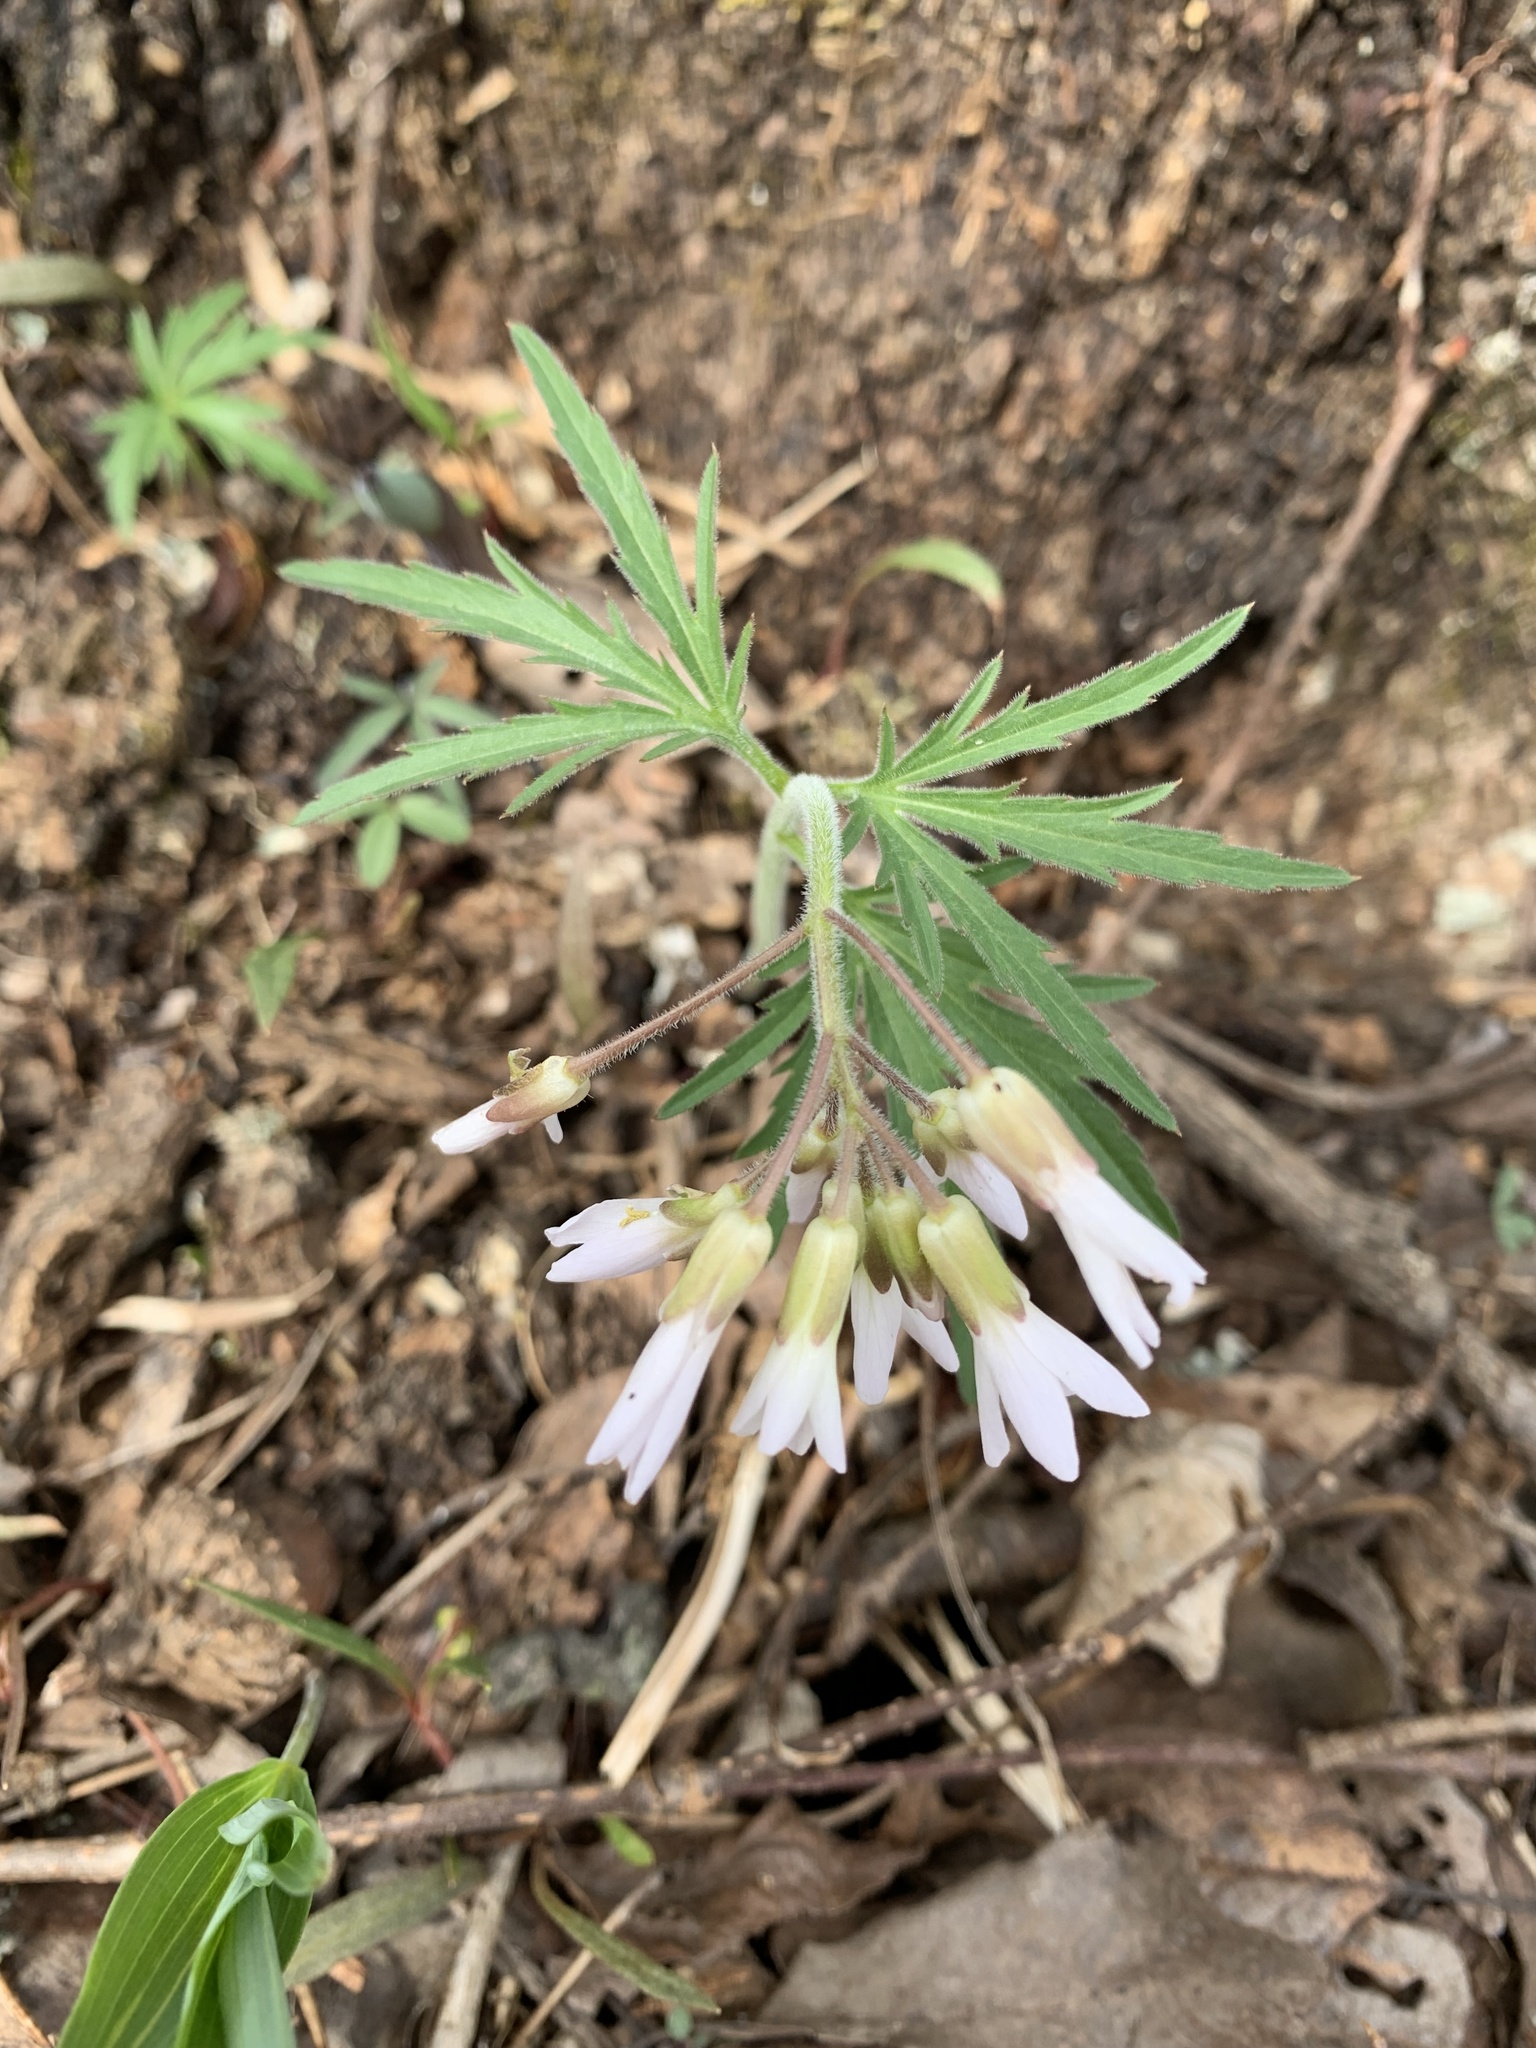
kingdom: Plantae
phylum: Tracheophyta
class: Magnoliopsida
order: Brassicales
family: Brassicaceae
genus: Cardamine
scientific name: Cardamine concatenata
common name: Cut-leaf toothcup
